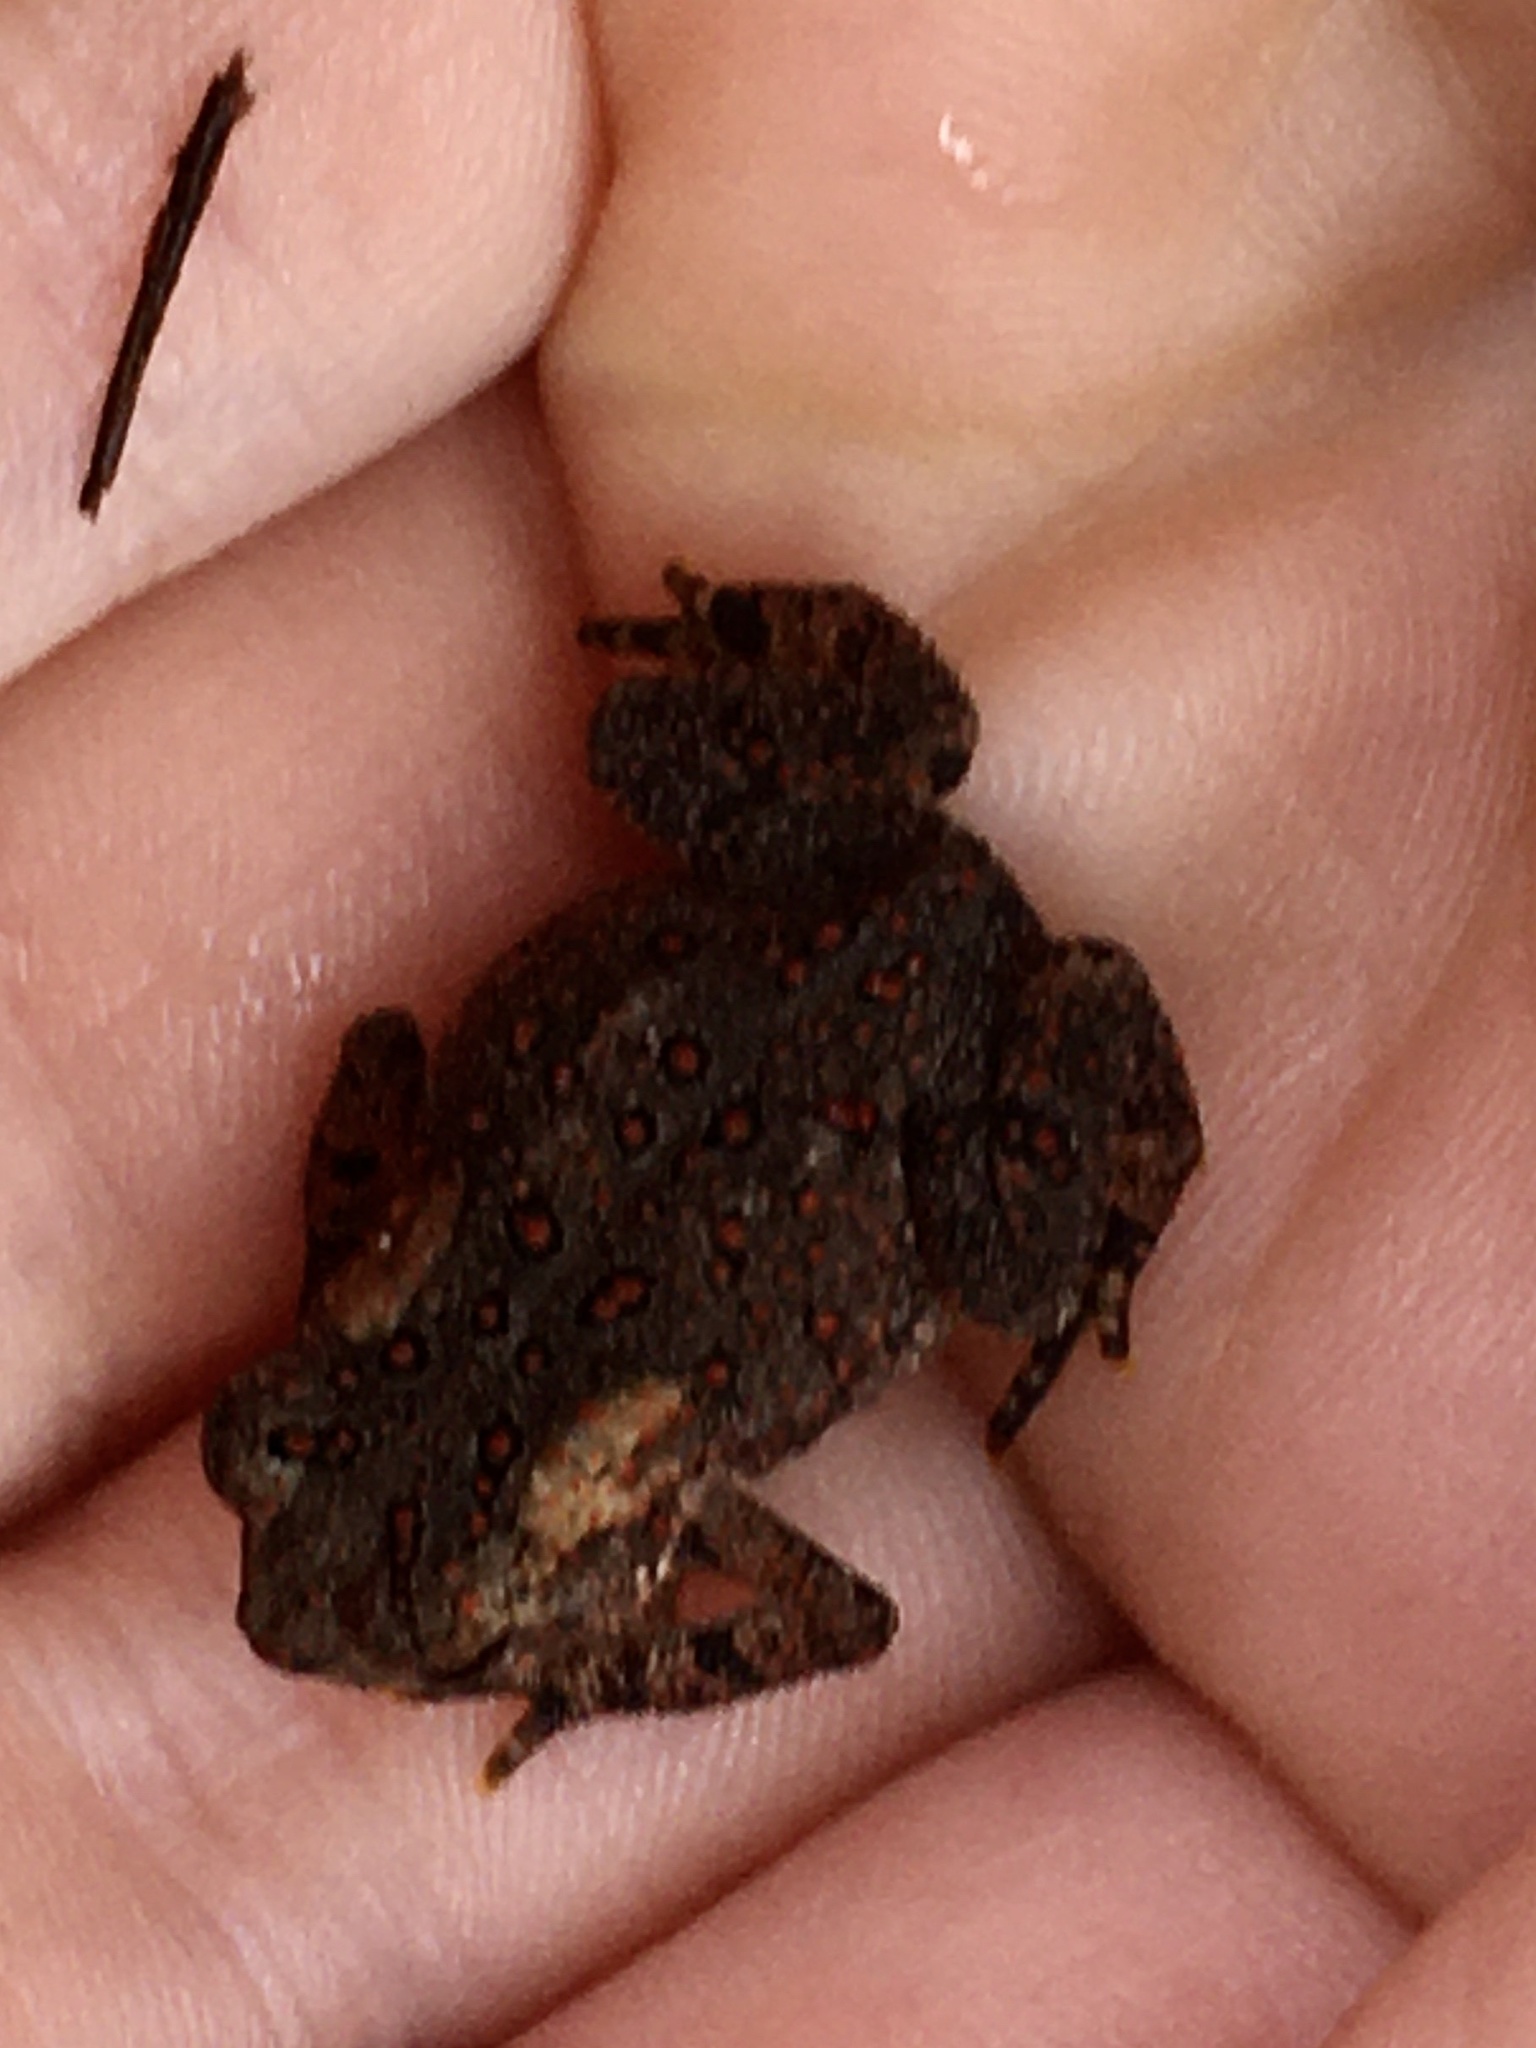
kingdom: Animalia
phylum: Chordata
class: Amphibia
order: Anura
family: Bufonidae
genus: Anaxyrus
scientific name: Anaxyrus americanus
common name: American toad
